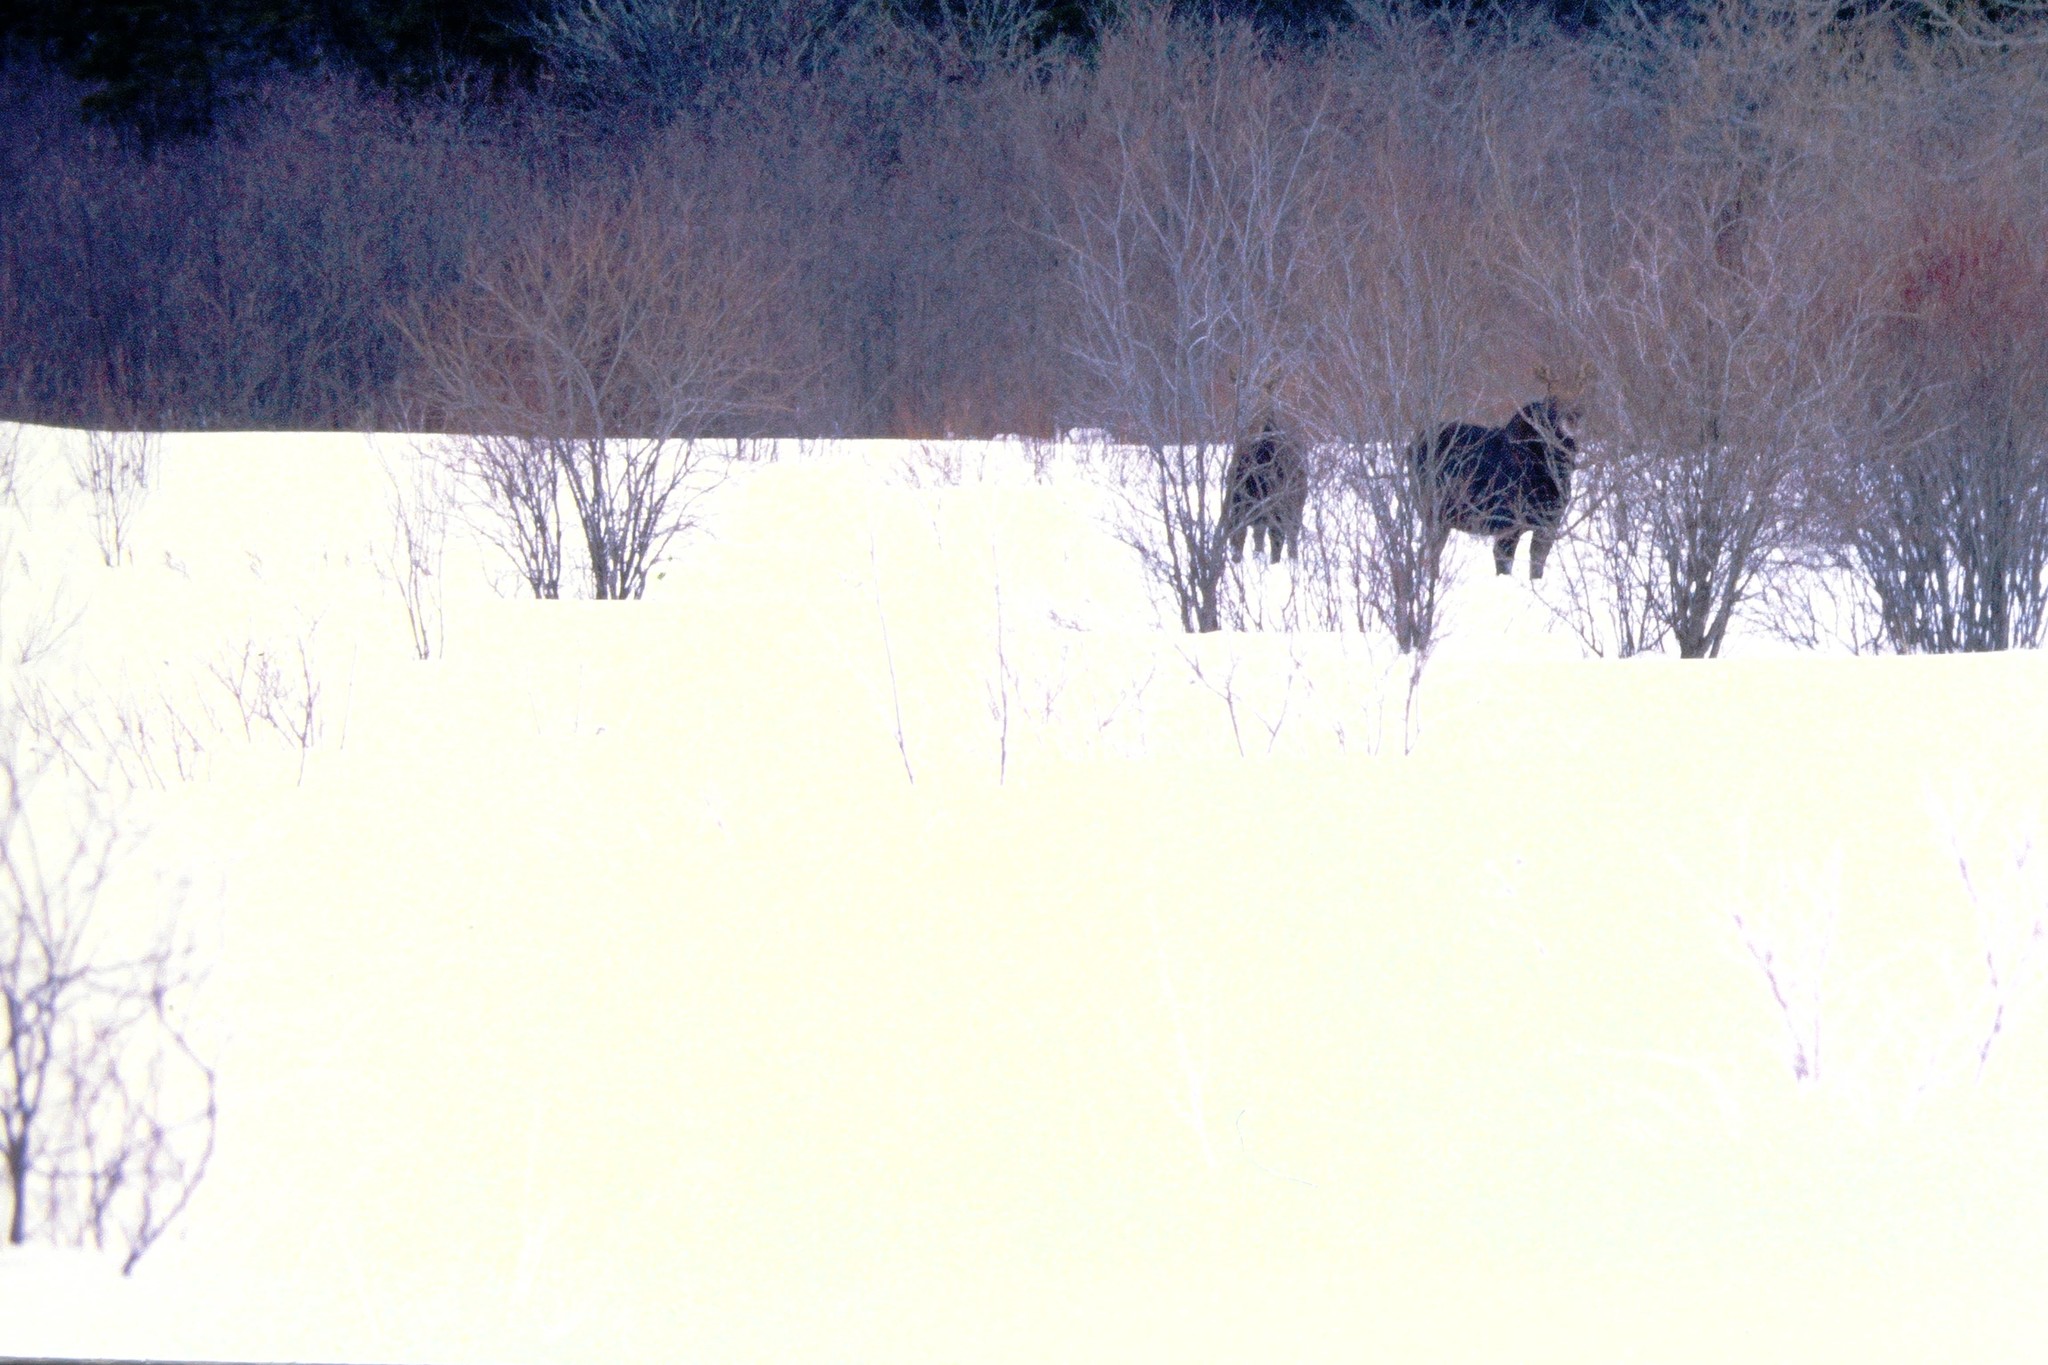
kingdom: Animalia
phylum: Chordata
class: Mammalia
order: Artiodactyla
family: Cervidae
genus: Alces
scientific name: Alces americanus
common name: Moose
